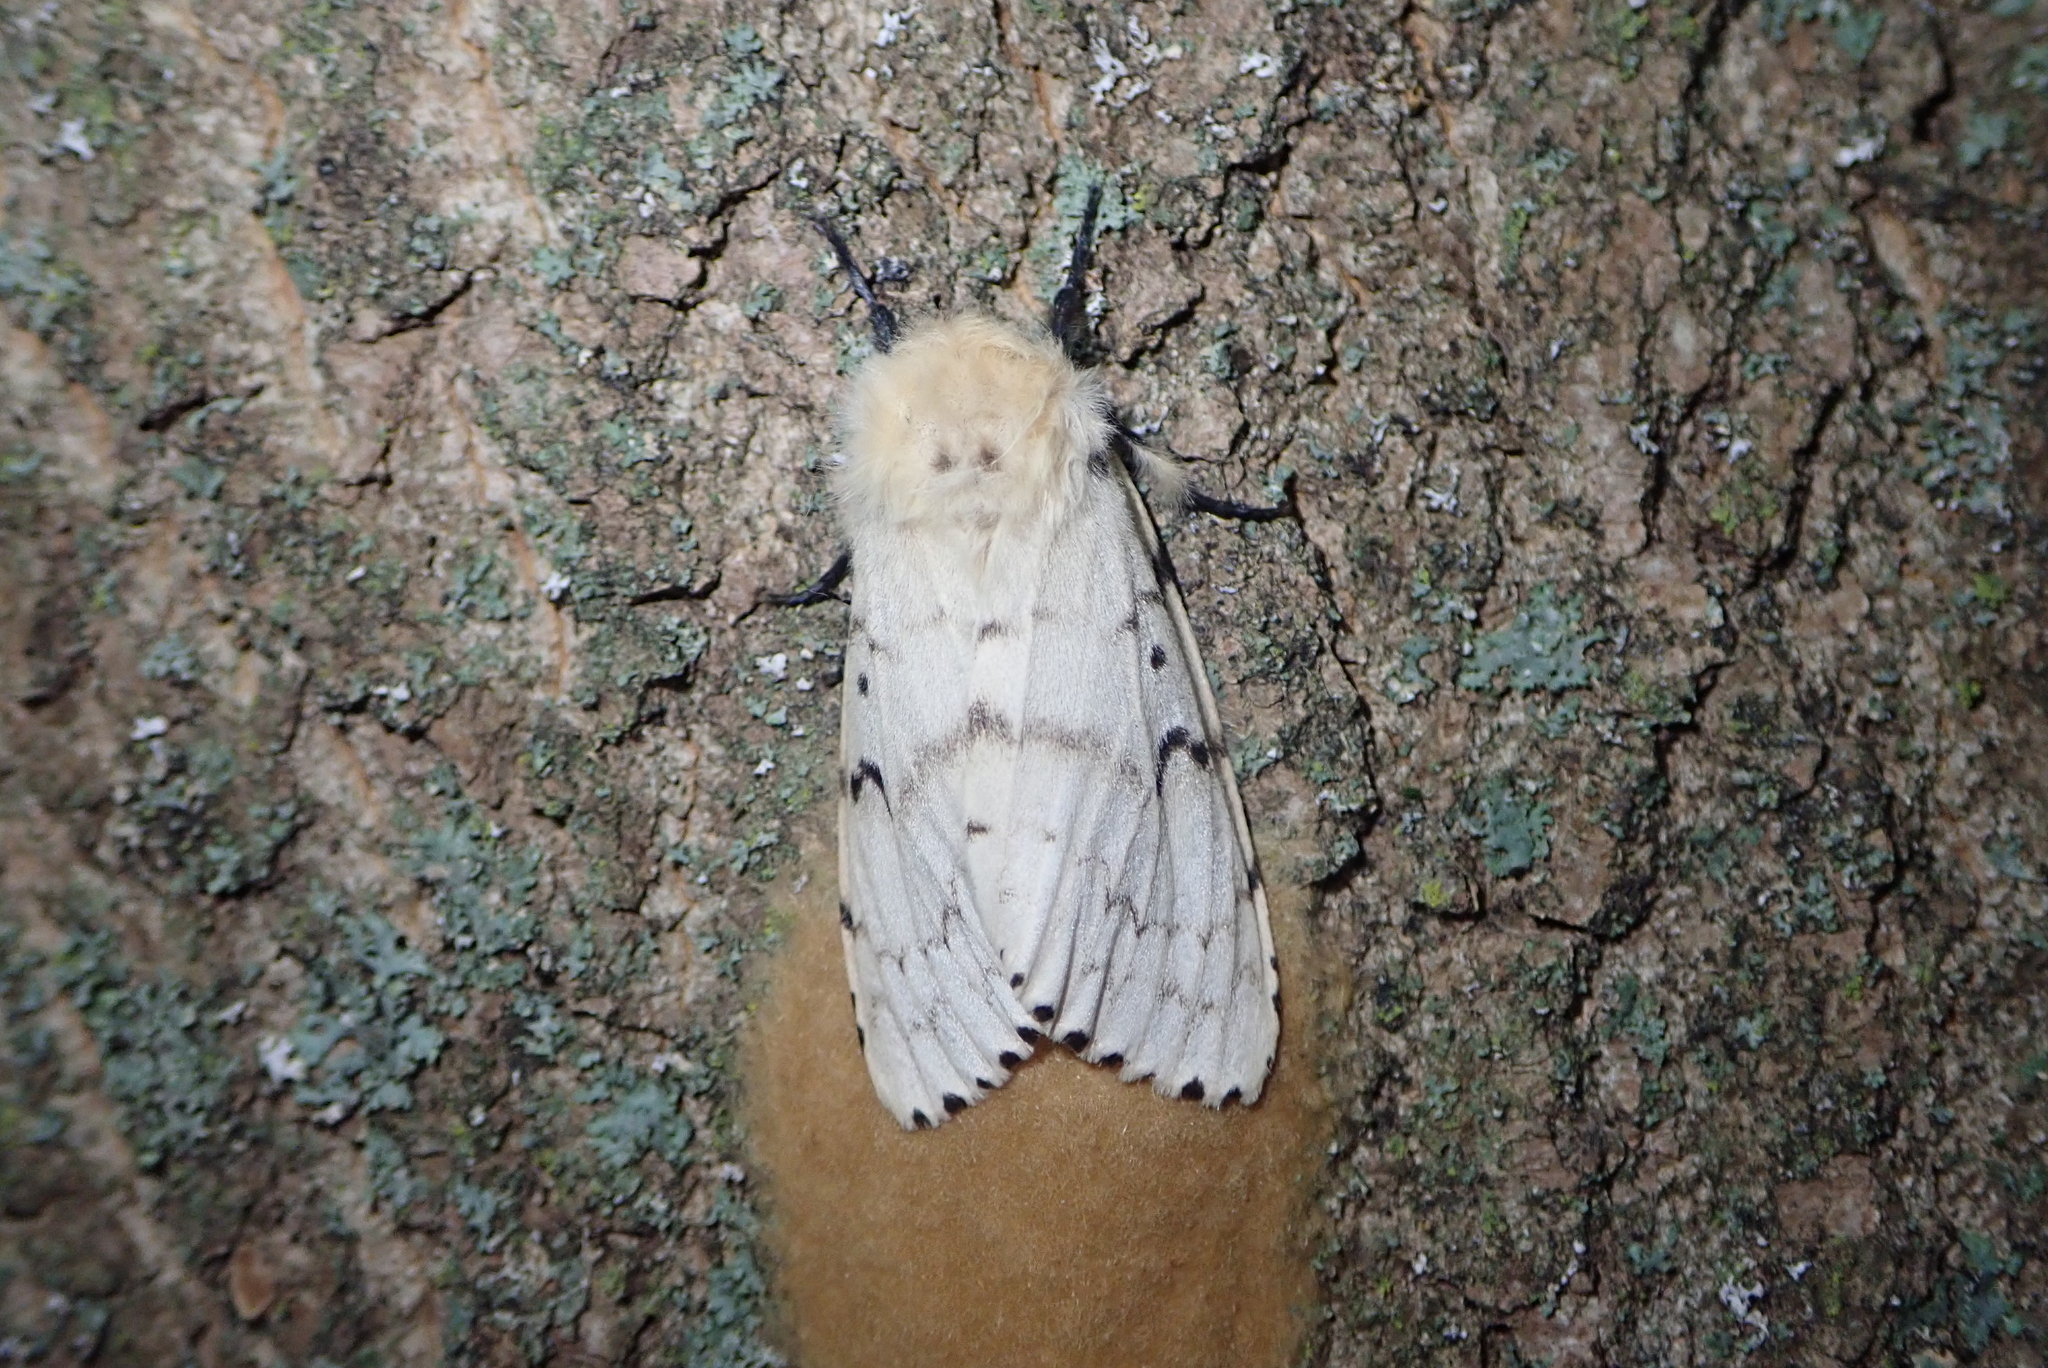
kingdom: Animalia
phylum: Arthropoda
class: Insecta
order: Lepidoptera
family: Erebidae
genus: Lymantria
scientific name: Lymantria dispar
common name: Gypsy moth
